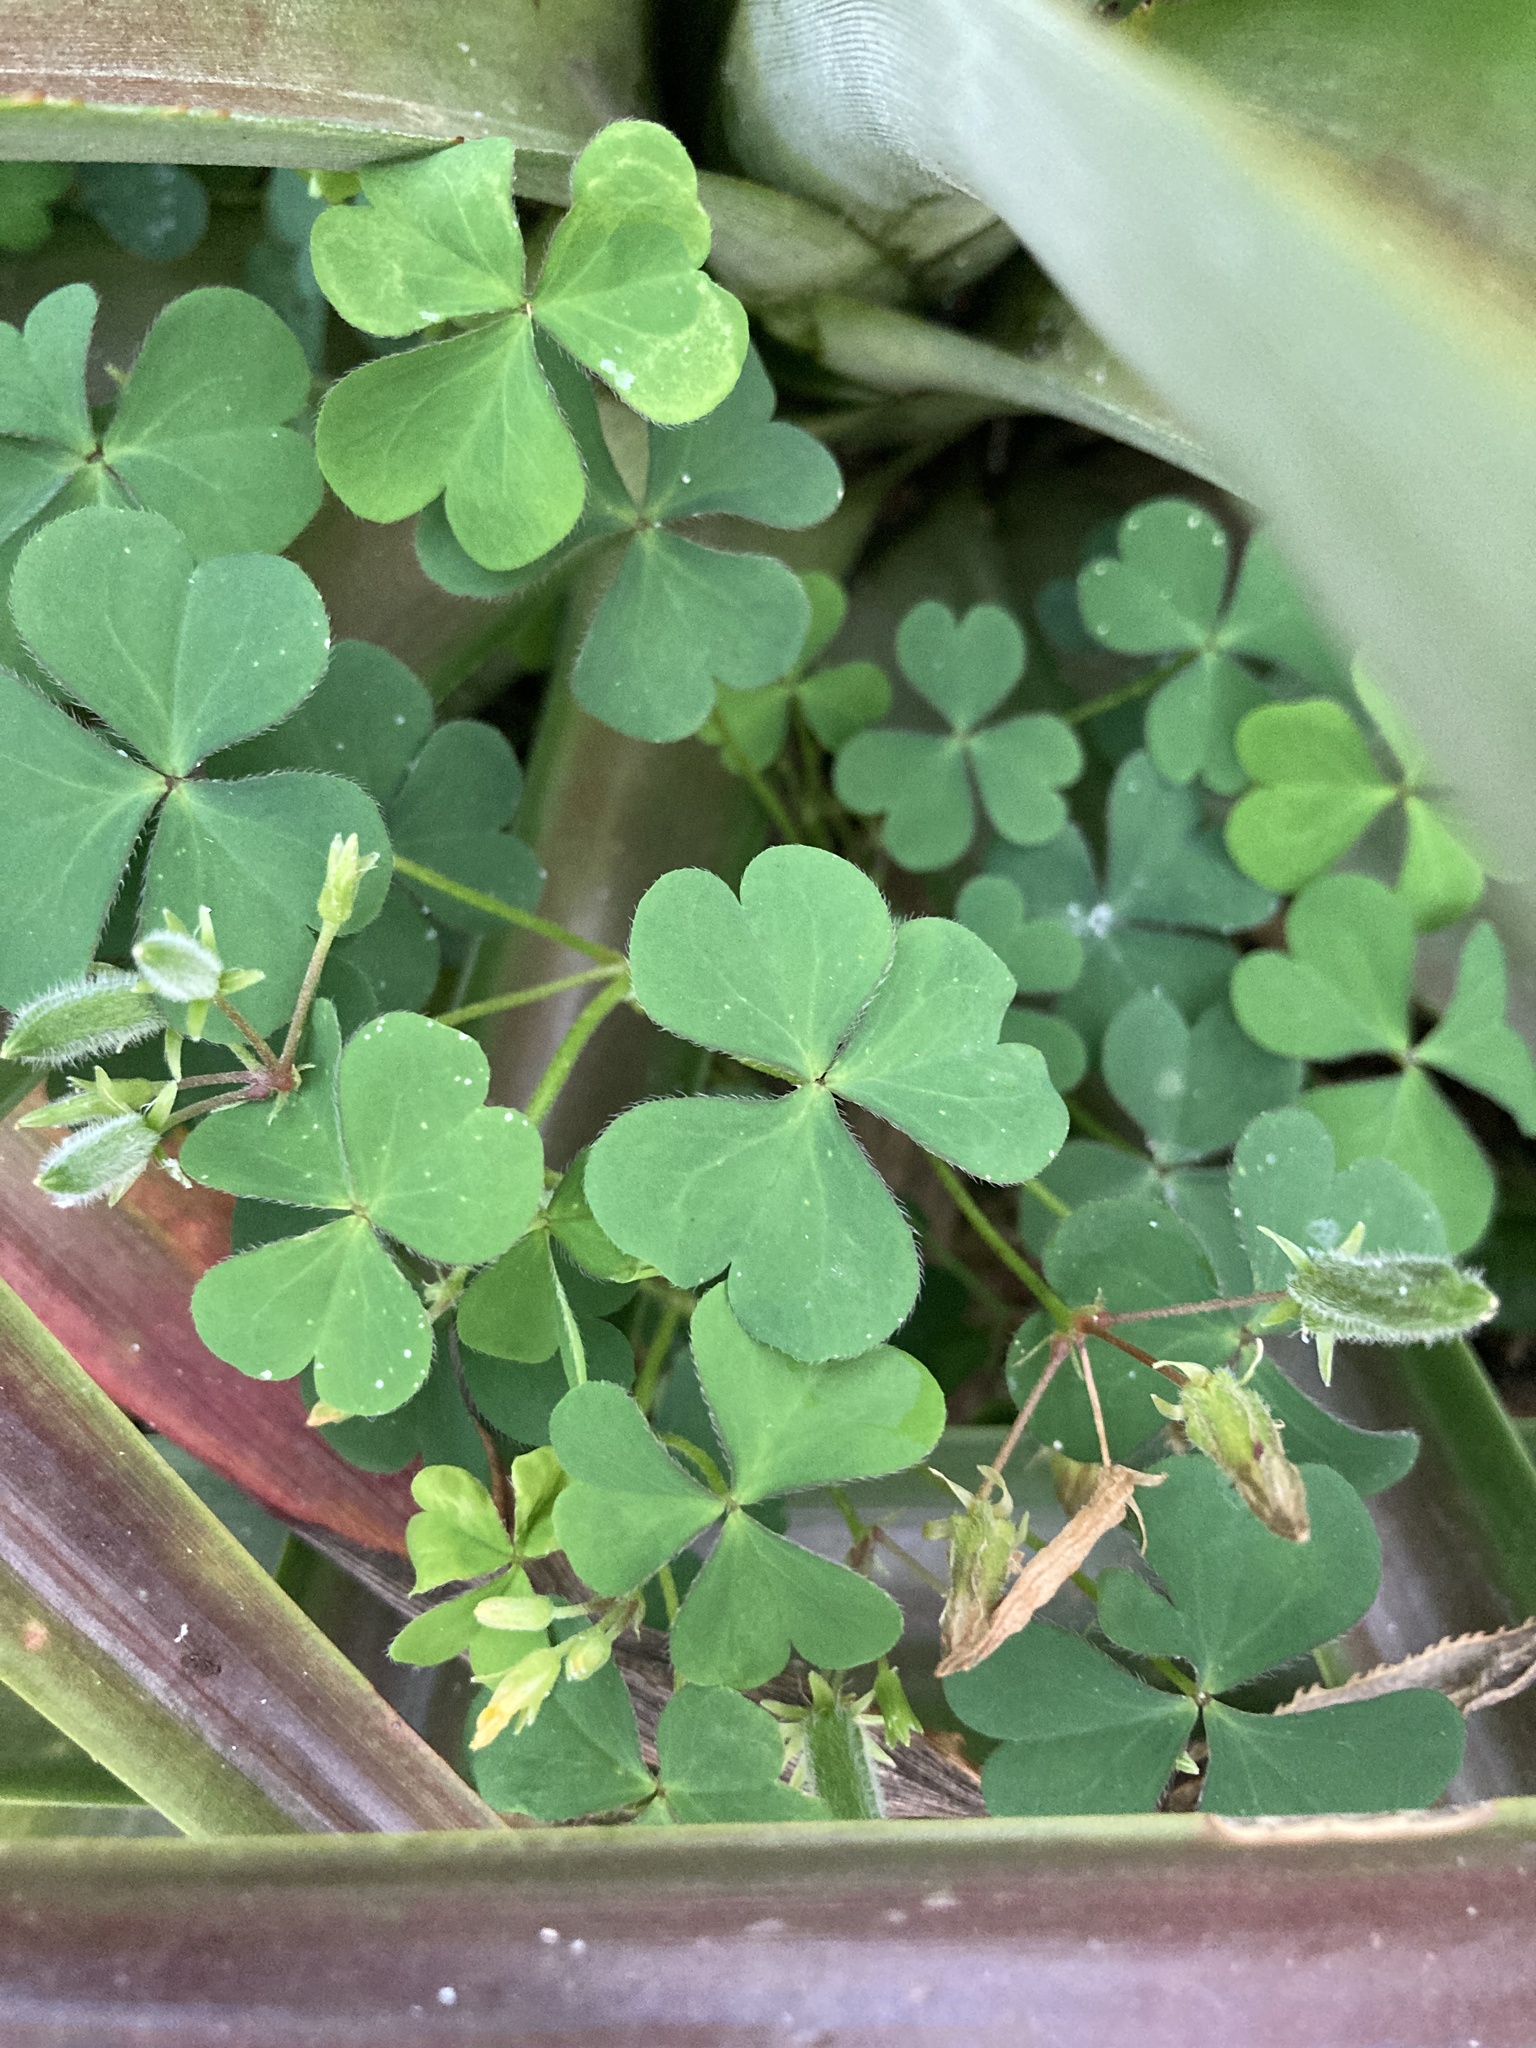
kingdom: Plantae
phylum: Tracheophyta
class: Magnoliopsida
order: Oxalidales
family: Oxalidaceae
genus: Oxalis
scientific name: Oxalis corniculata
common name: Procumbent yellow-sorrel
